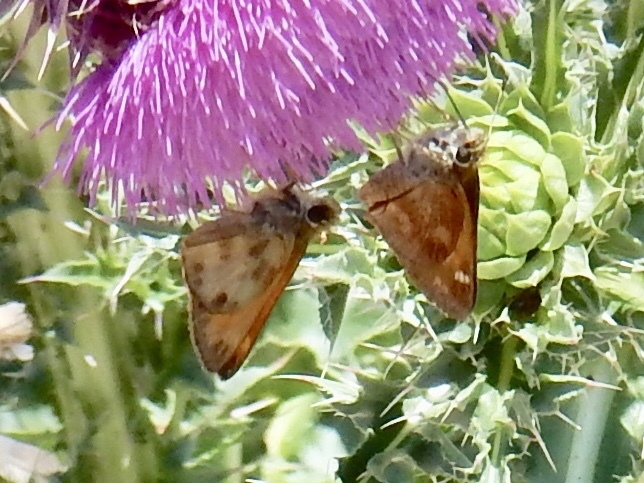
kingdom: Animalia
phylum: Arthropoda
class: Insecta
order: Lepidoptera
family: Hesperiidae
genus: Lon
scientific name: Lon taxiles
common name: Taxiles skipper
